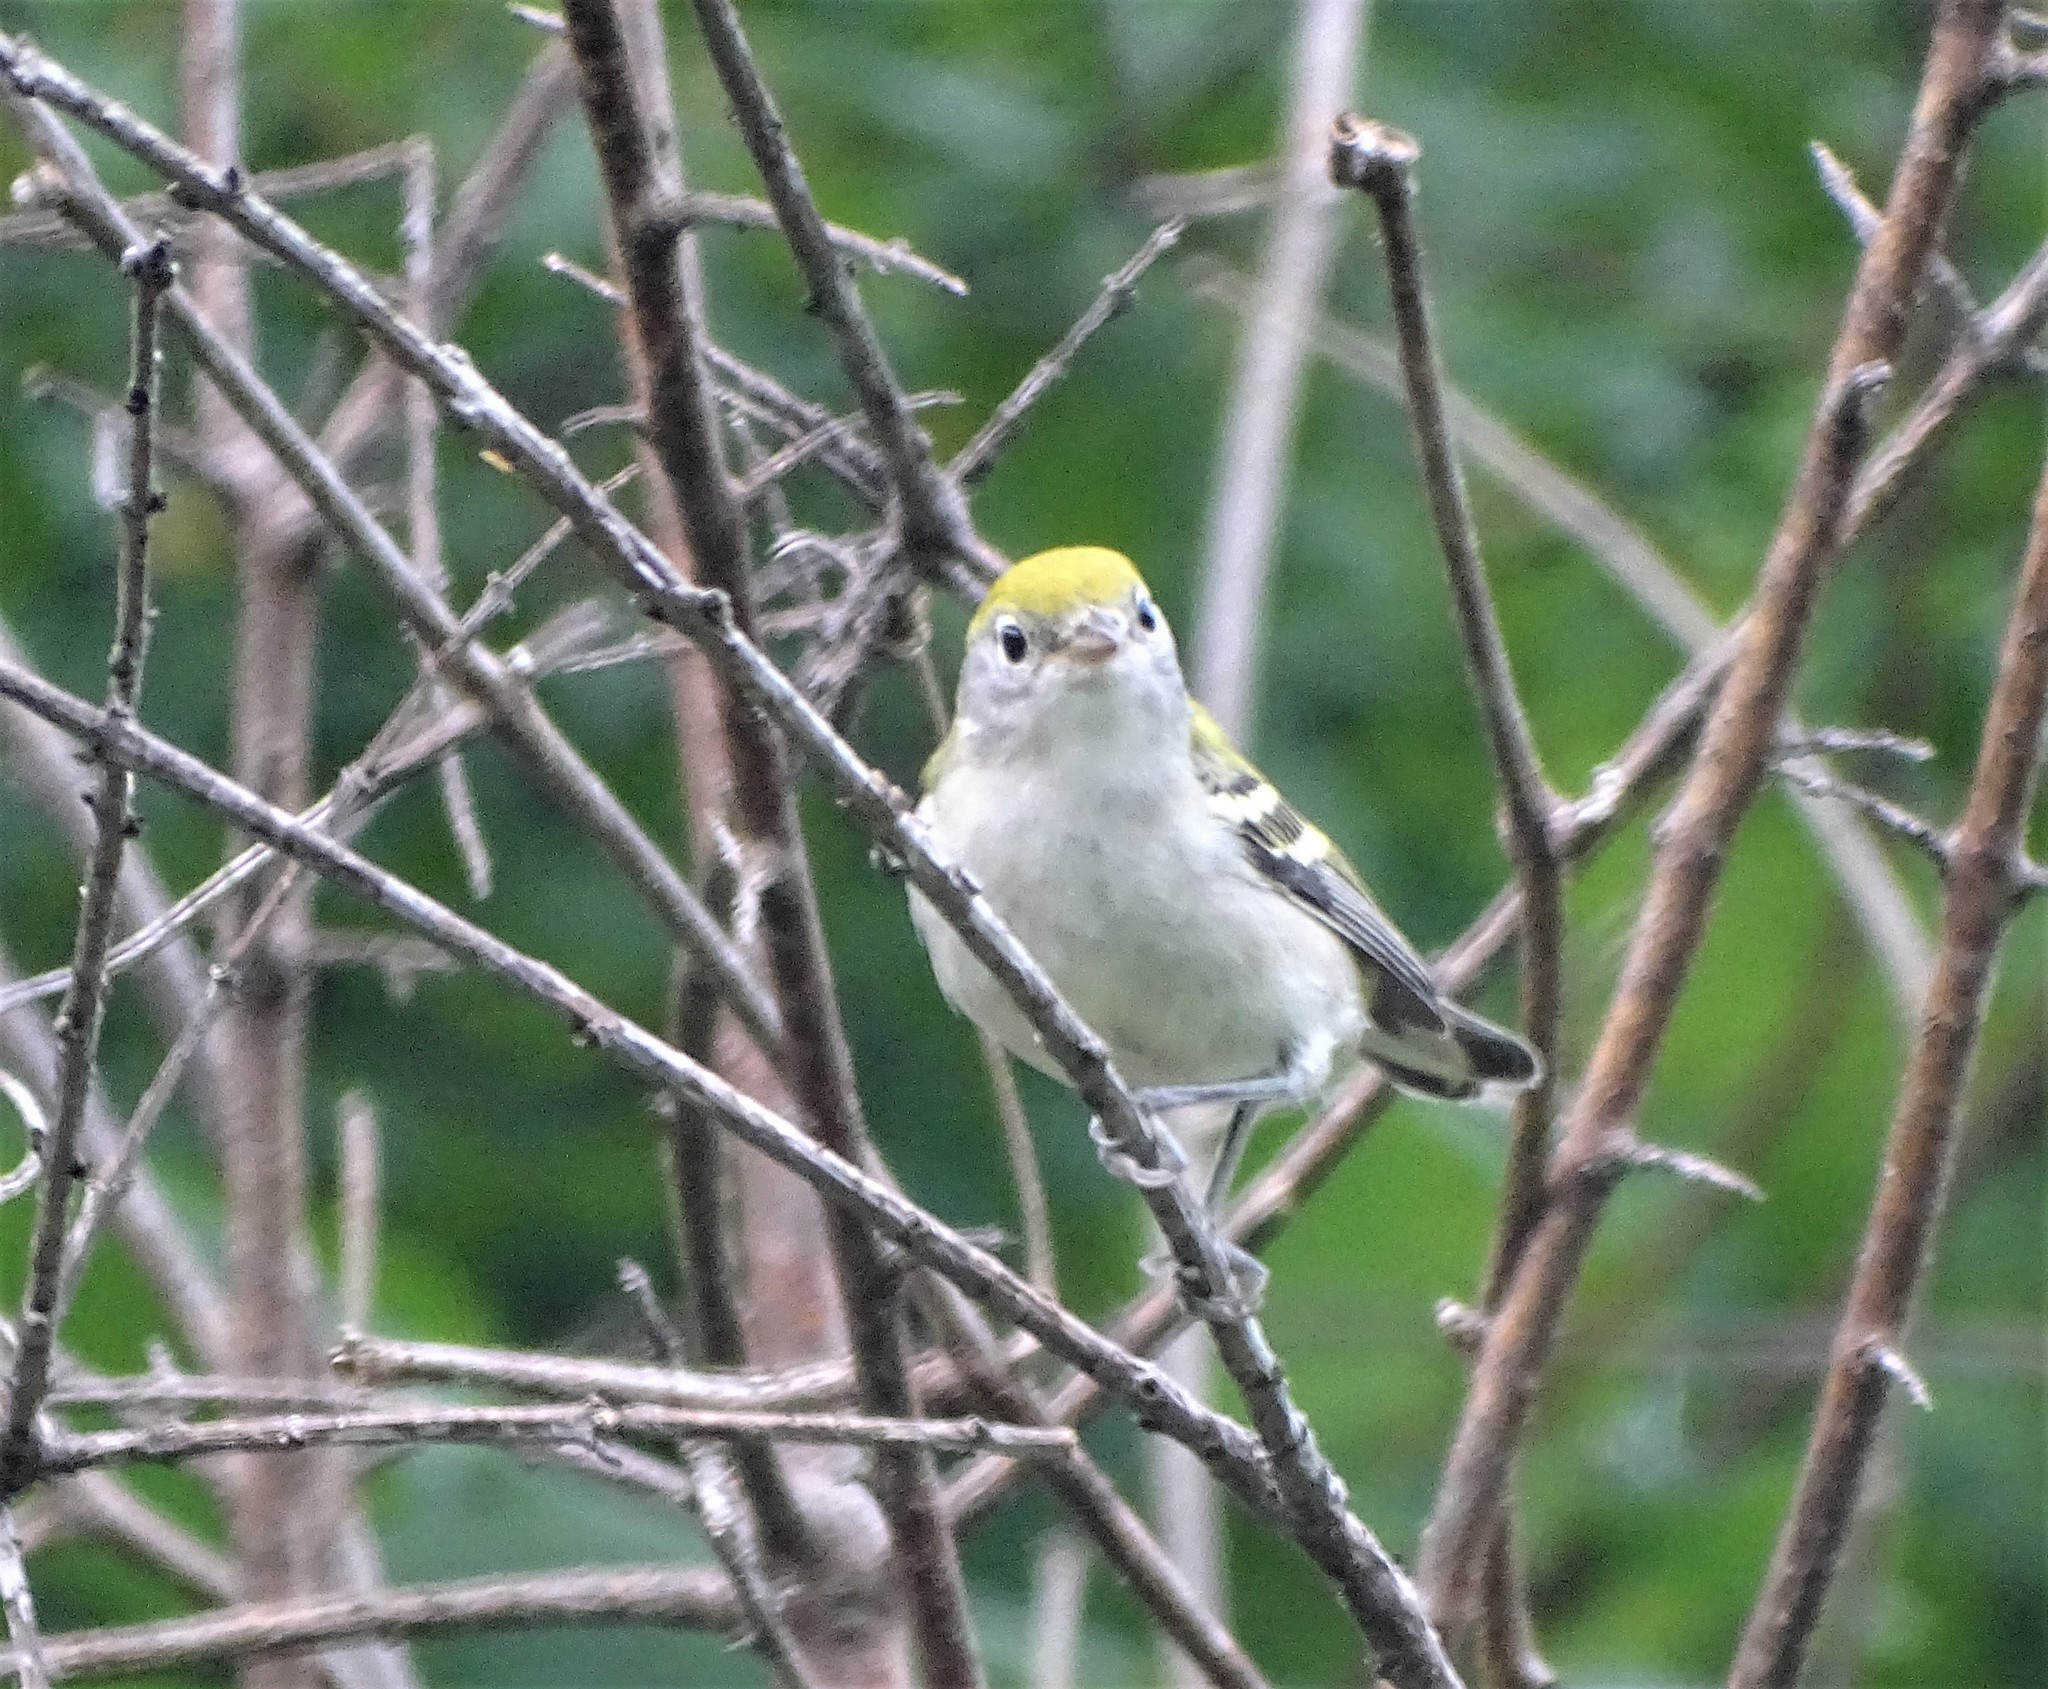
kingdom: Animalia
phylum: Chordata
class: Aves
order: Passeriformes
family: Parulidae
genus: Setophaga
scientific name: Setophaga pensylvanica
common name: Chestnut-sided warbler
